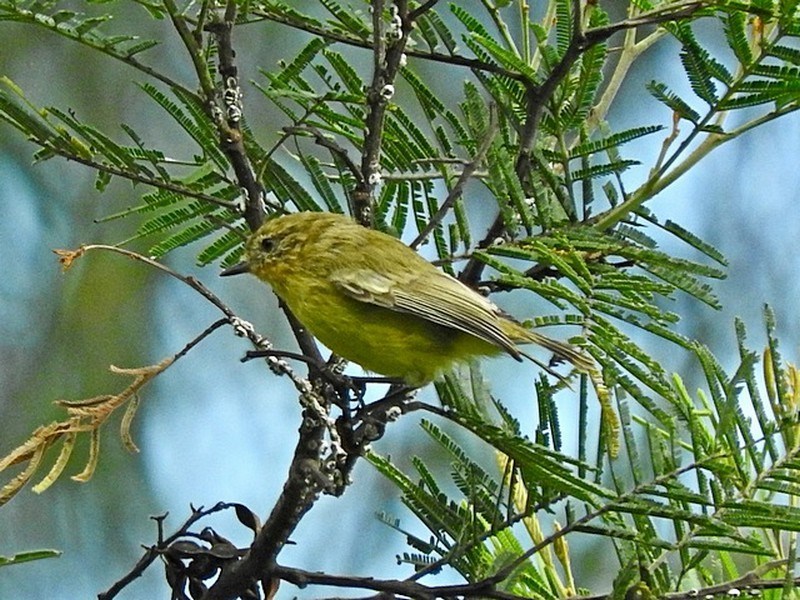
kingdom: Animalia
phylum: Chordata
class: Aves
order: Passeriformes
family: Acanthizidae
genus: Acanthiza
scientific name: Acanthiza nana
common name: Yellow thornbill
